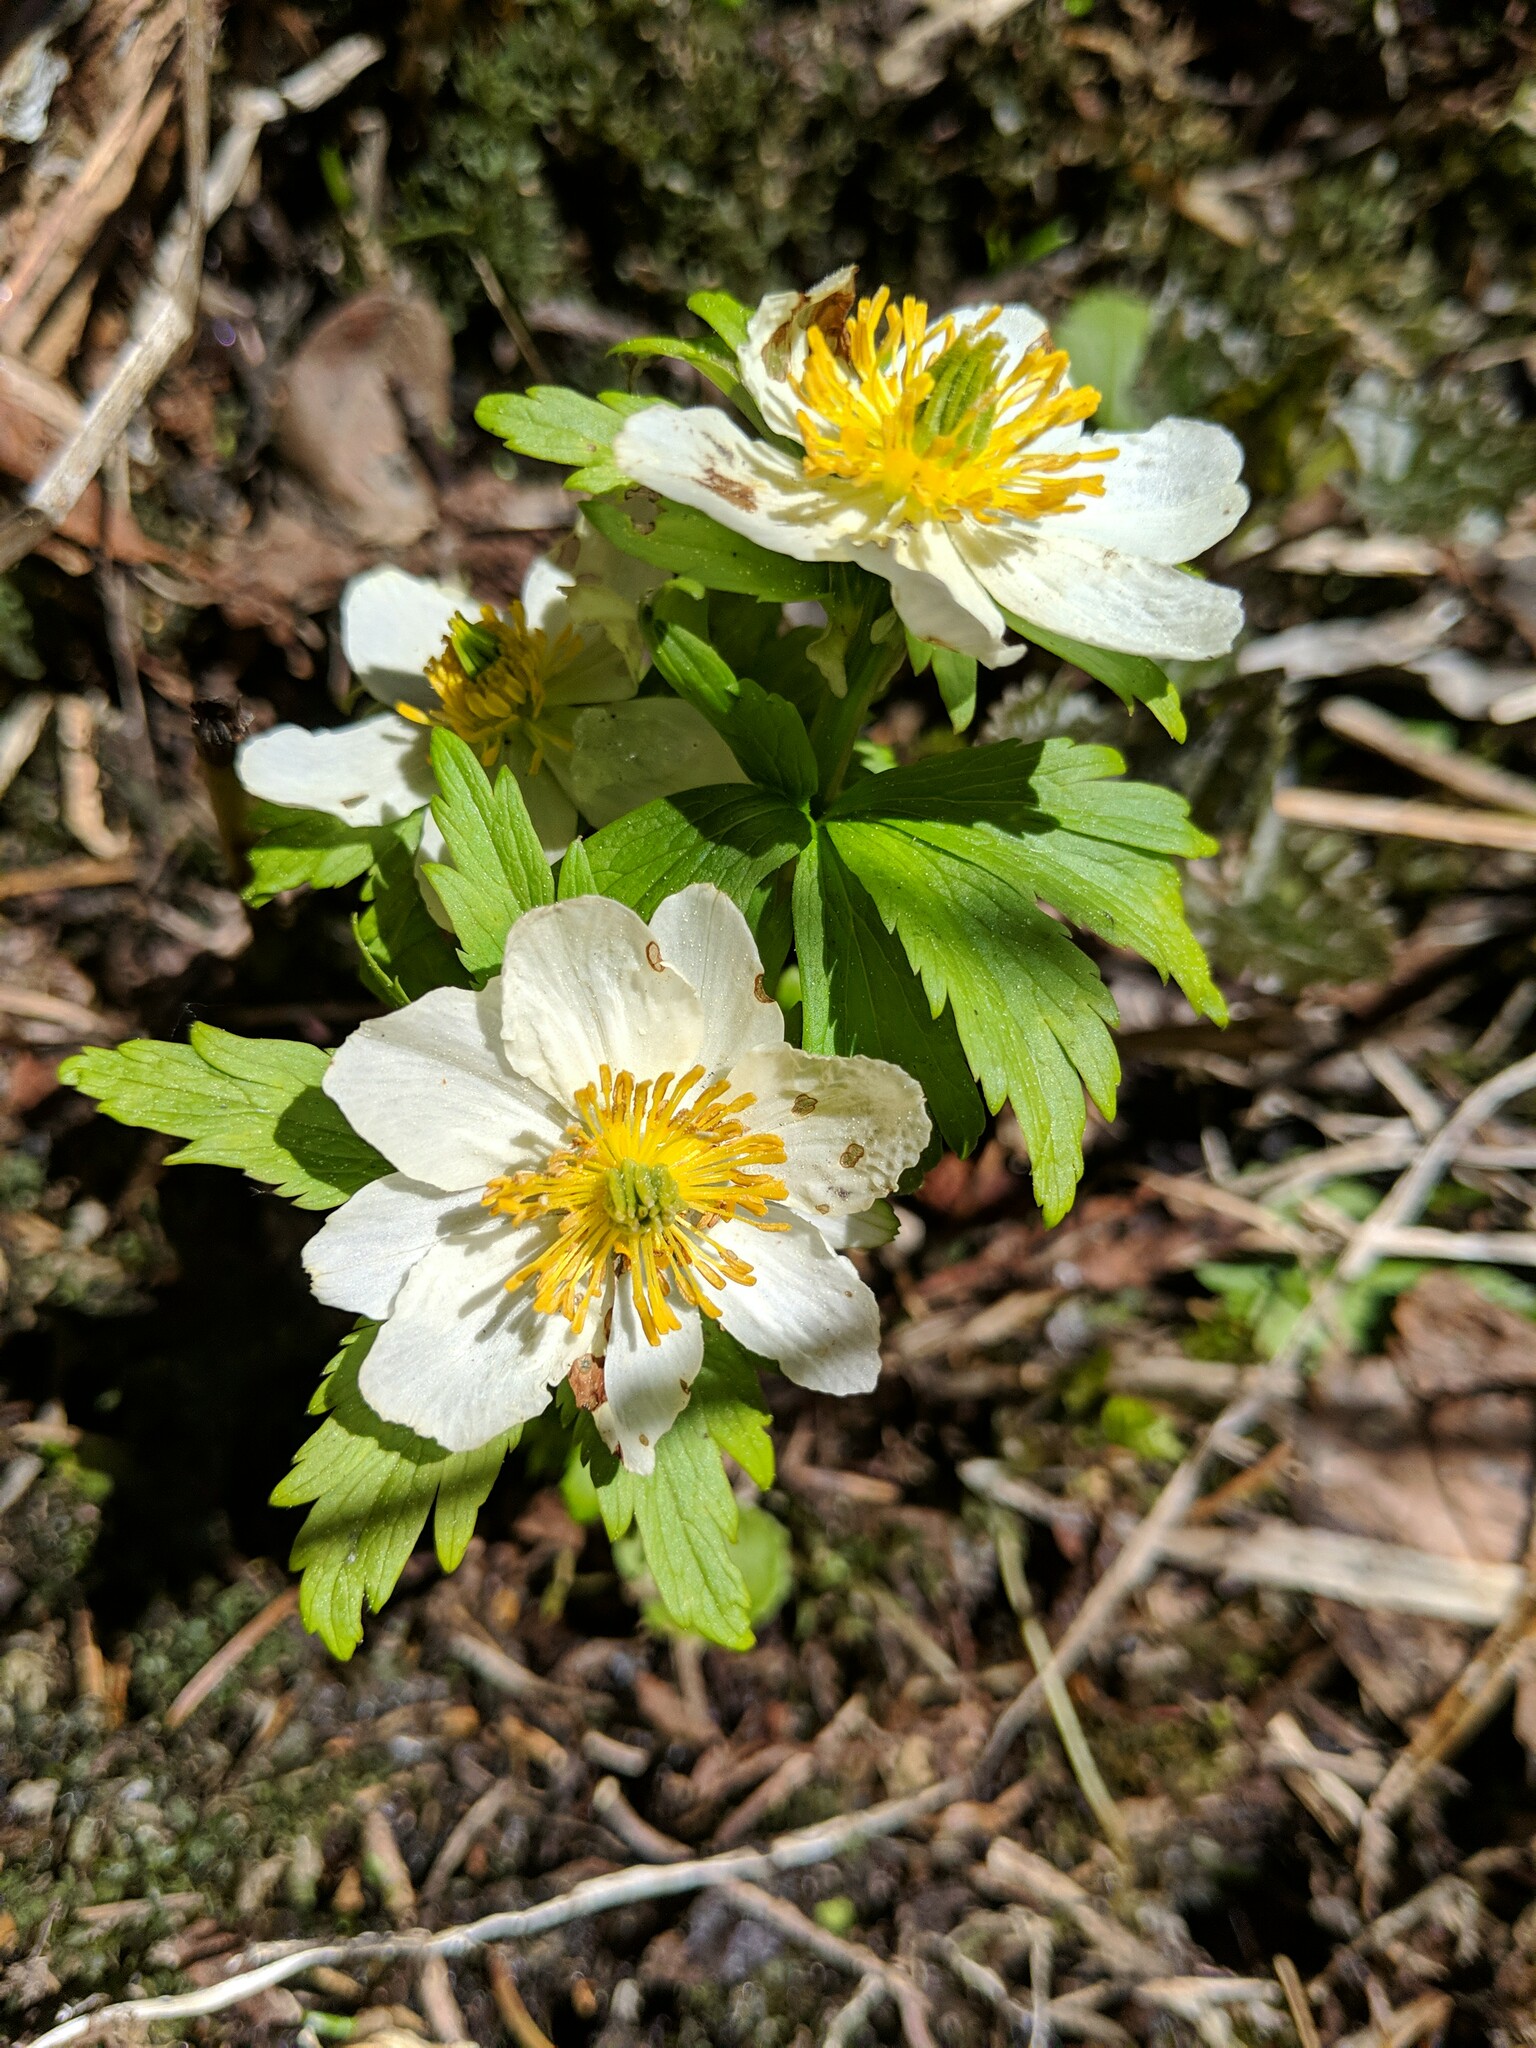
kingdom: Plantae
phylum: Tracheophyta
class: Magnoliopsida
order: Ranunculales
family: Ranunculaceae
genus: Trollius
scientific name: Trollius laxus
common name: American globeflower
